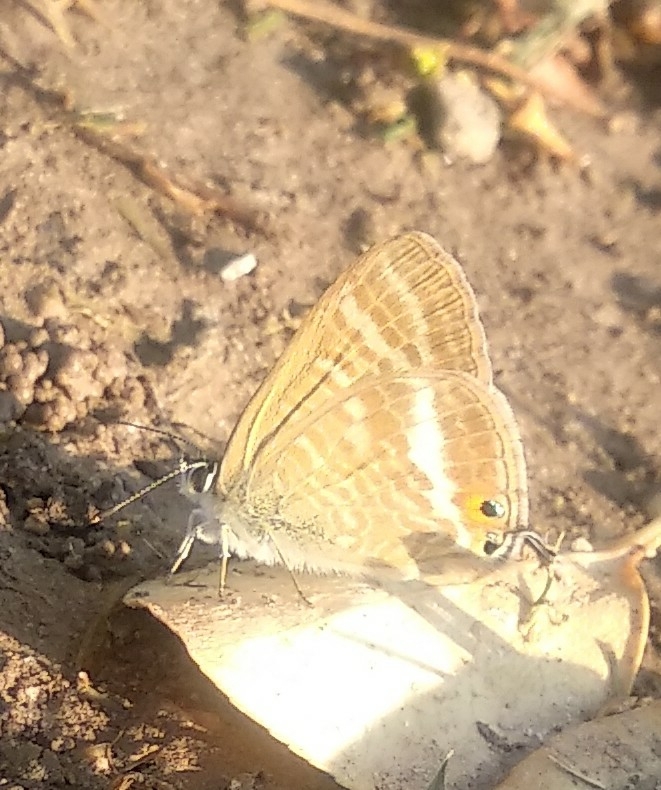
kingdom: Animalia
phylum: Arthropoda
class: Insecta
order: Lepidoptera
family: Lycaenidae
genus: Lampides
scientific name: Lampides boeticus
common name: Long-tailed blue
